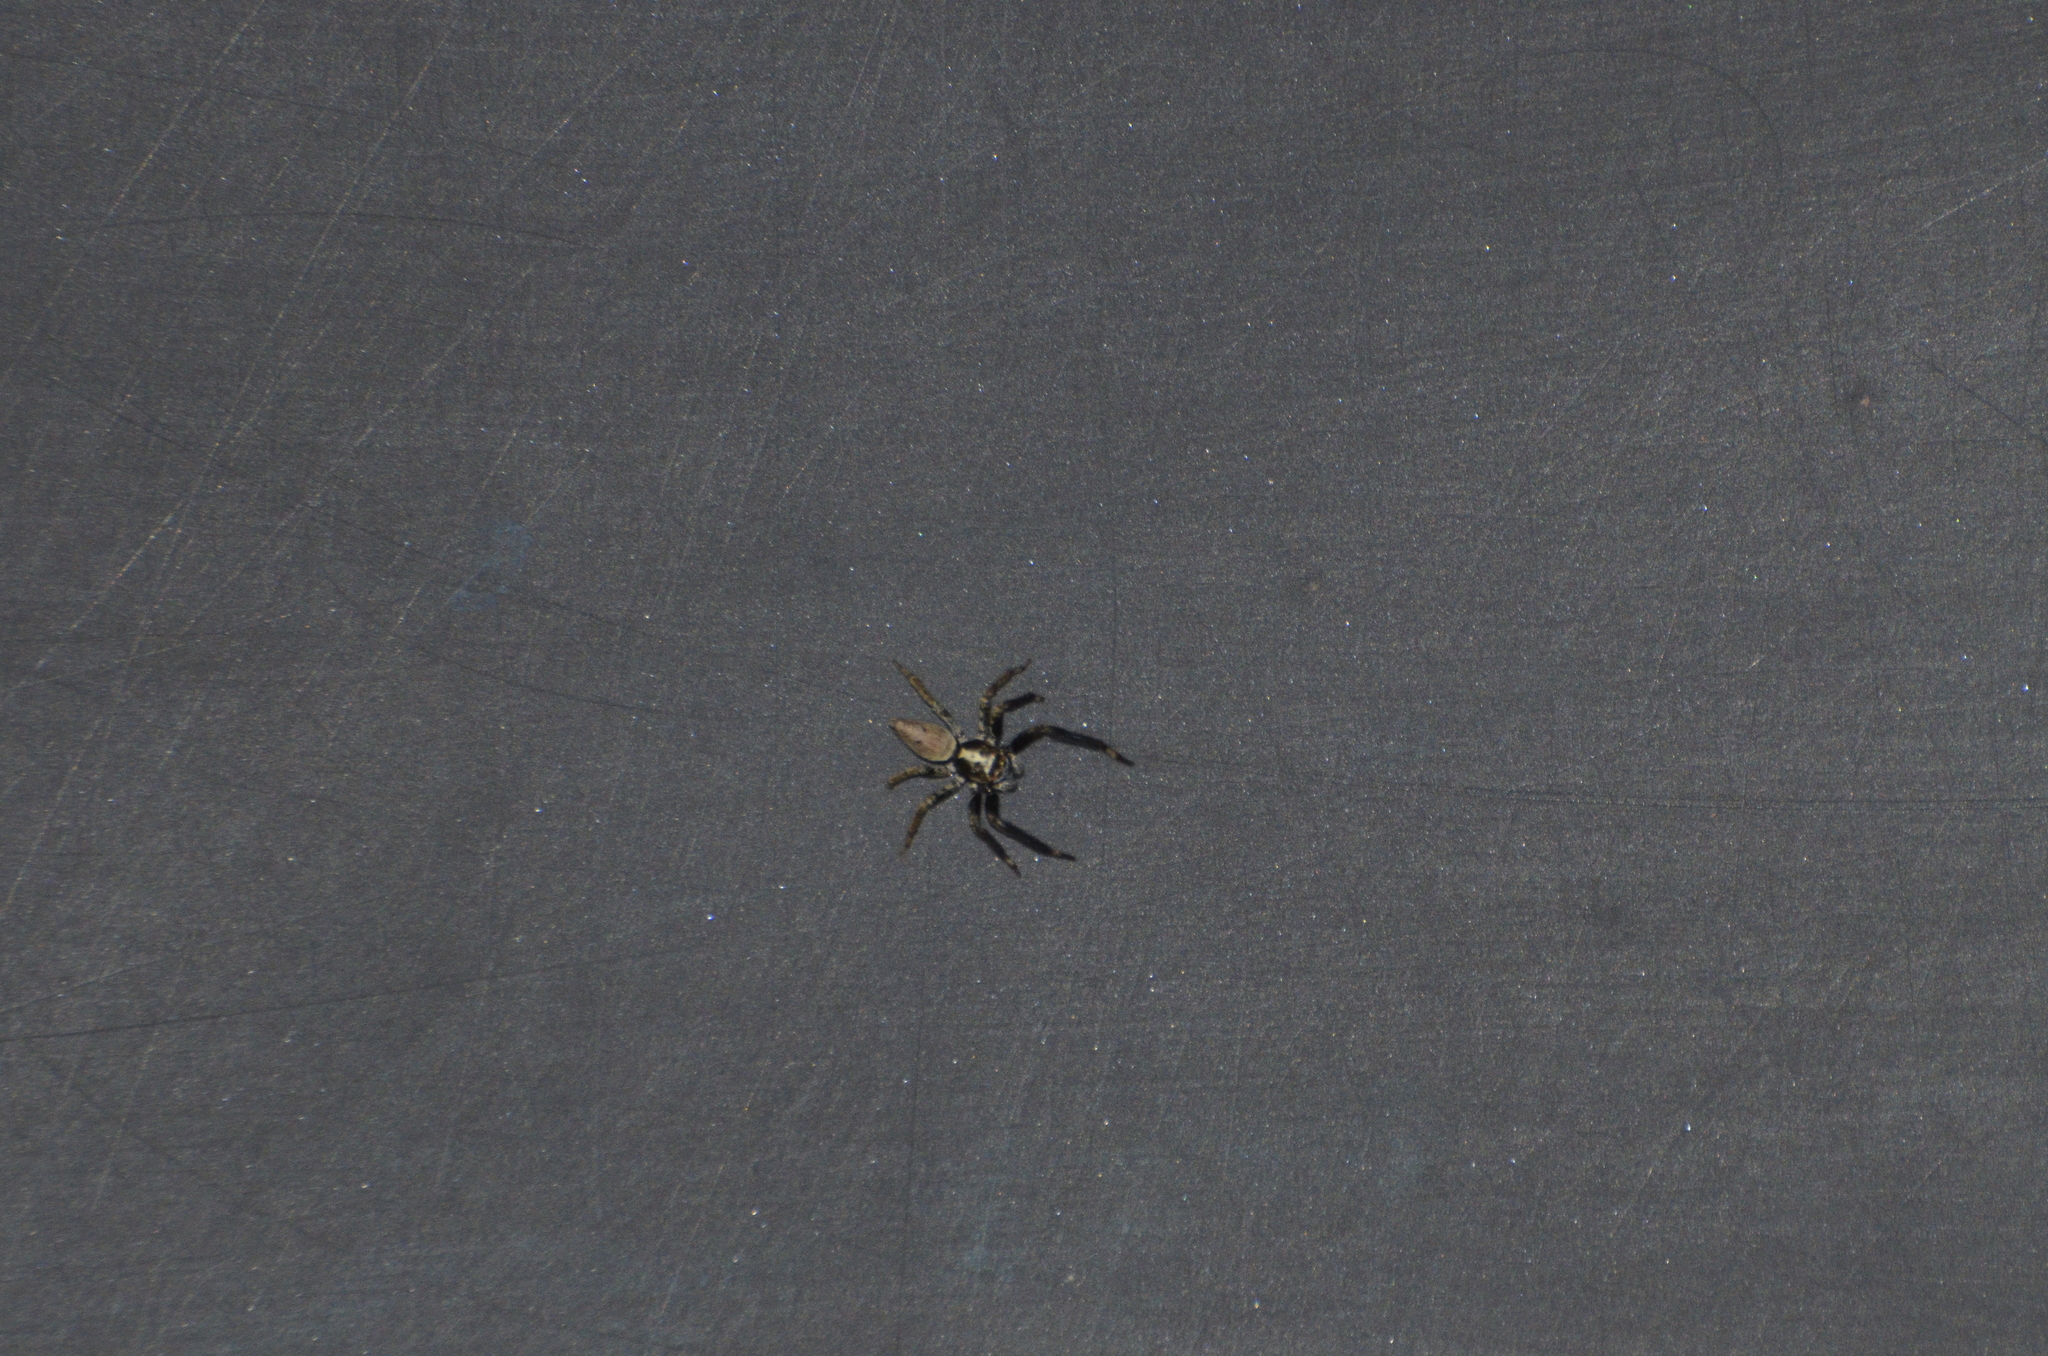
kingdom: Animalia
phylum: Arthropoda
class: Arachnida
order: Araneae
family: Salticidae
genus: Asaphobelis
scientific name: Asaphobelis physonychus
